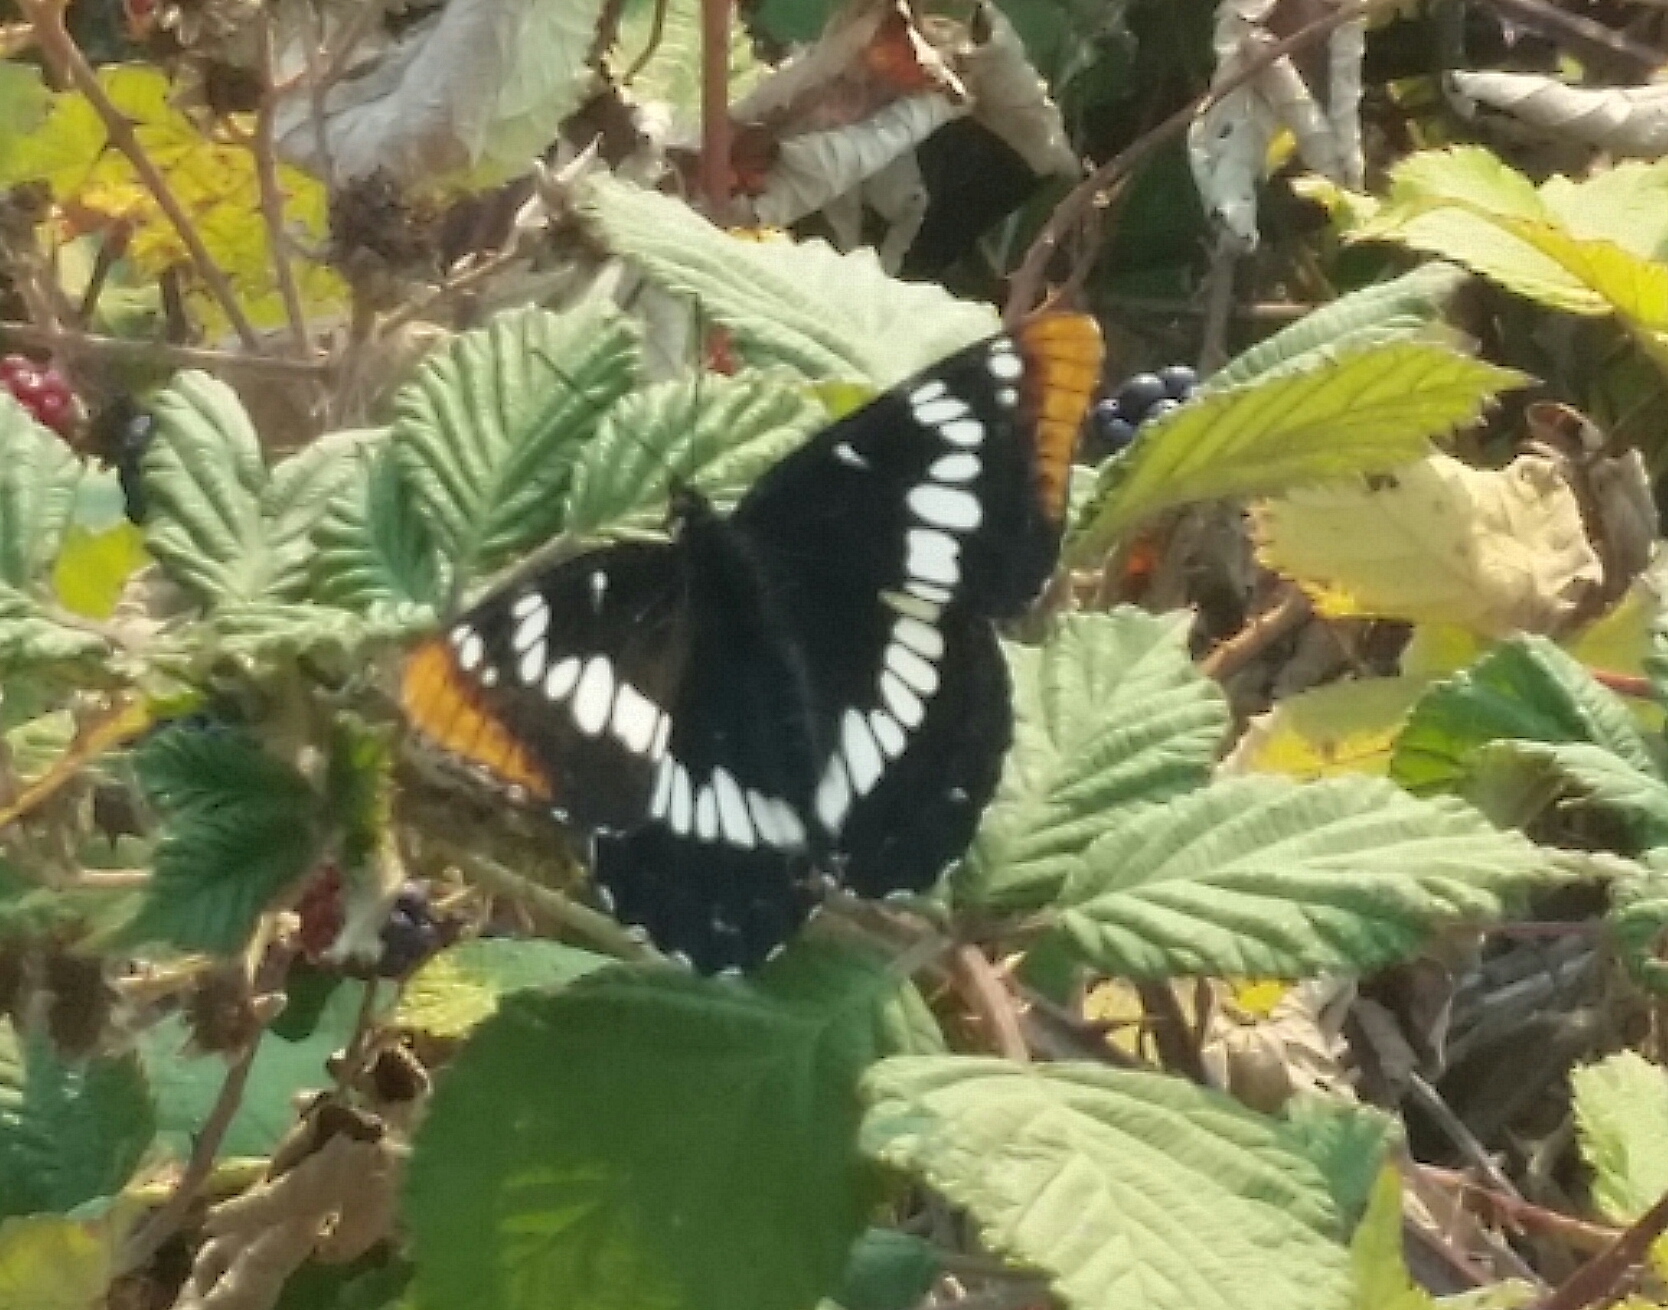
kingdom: Animalia
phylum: Arthropoda
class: Insecta
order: Lepidoptera
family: Nymphalidae
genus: Limenitis
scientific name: Limenitis lorquini
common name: Lorquin's admiral
